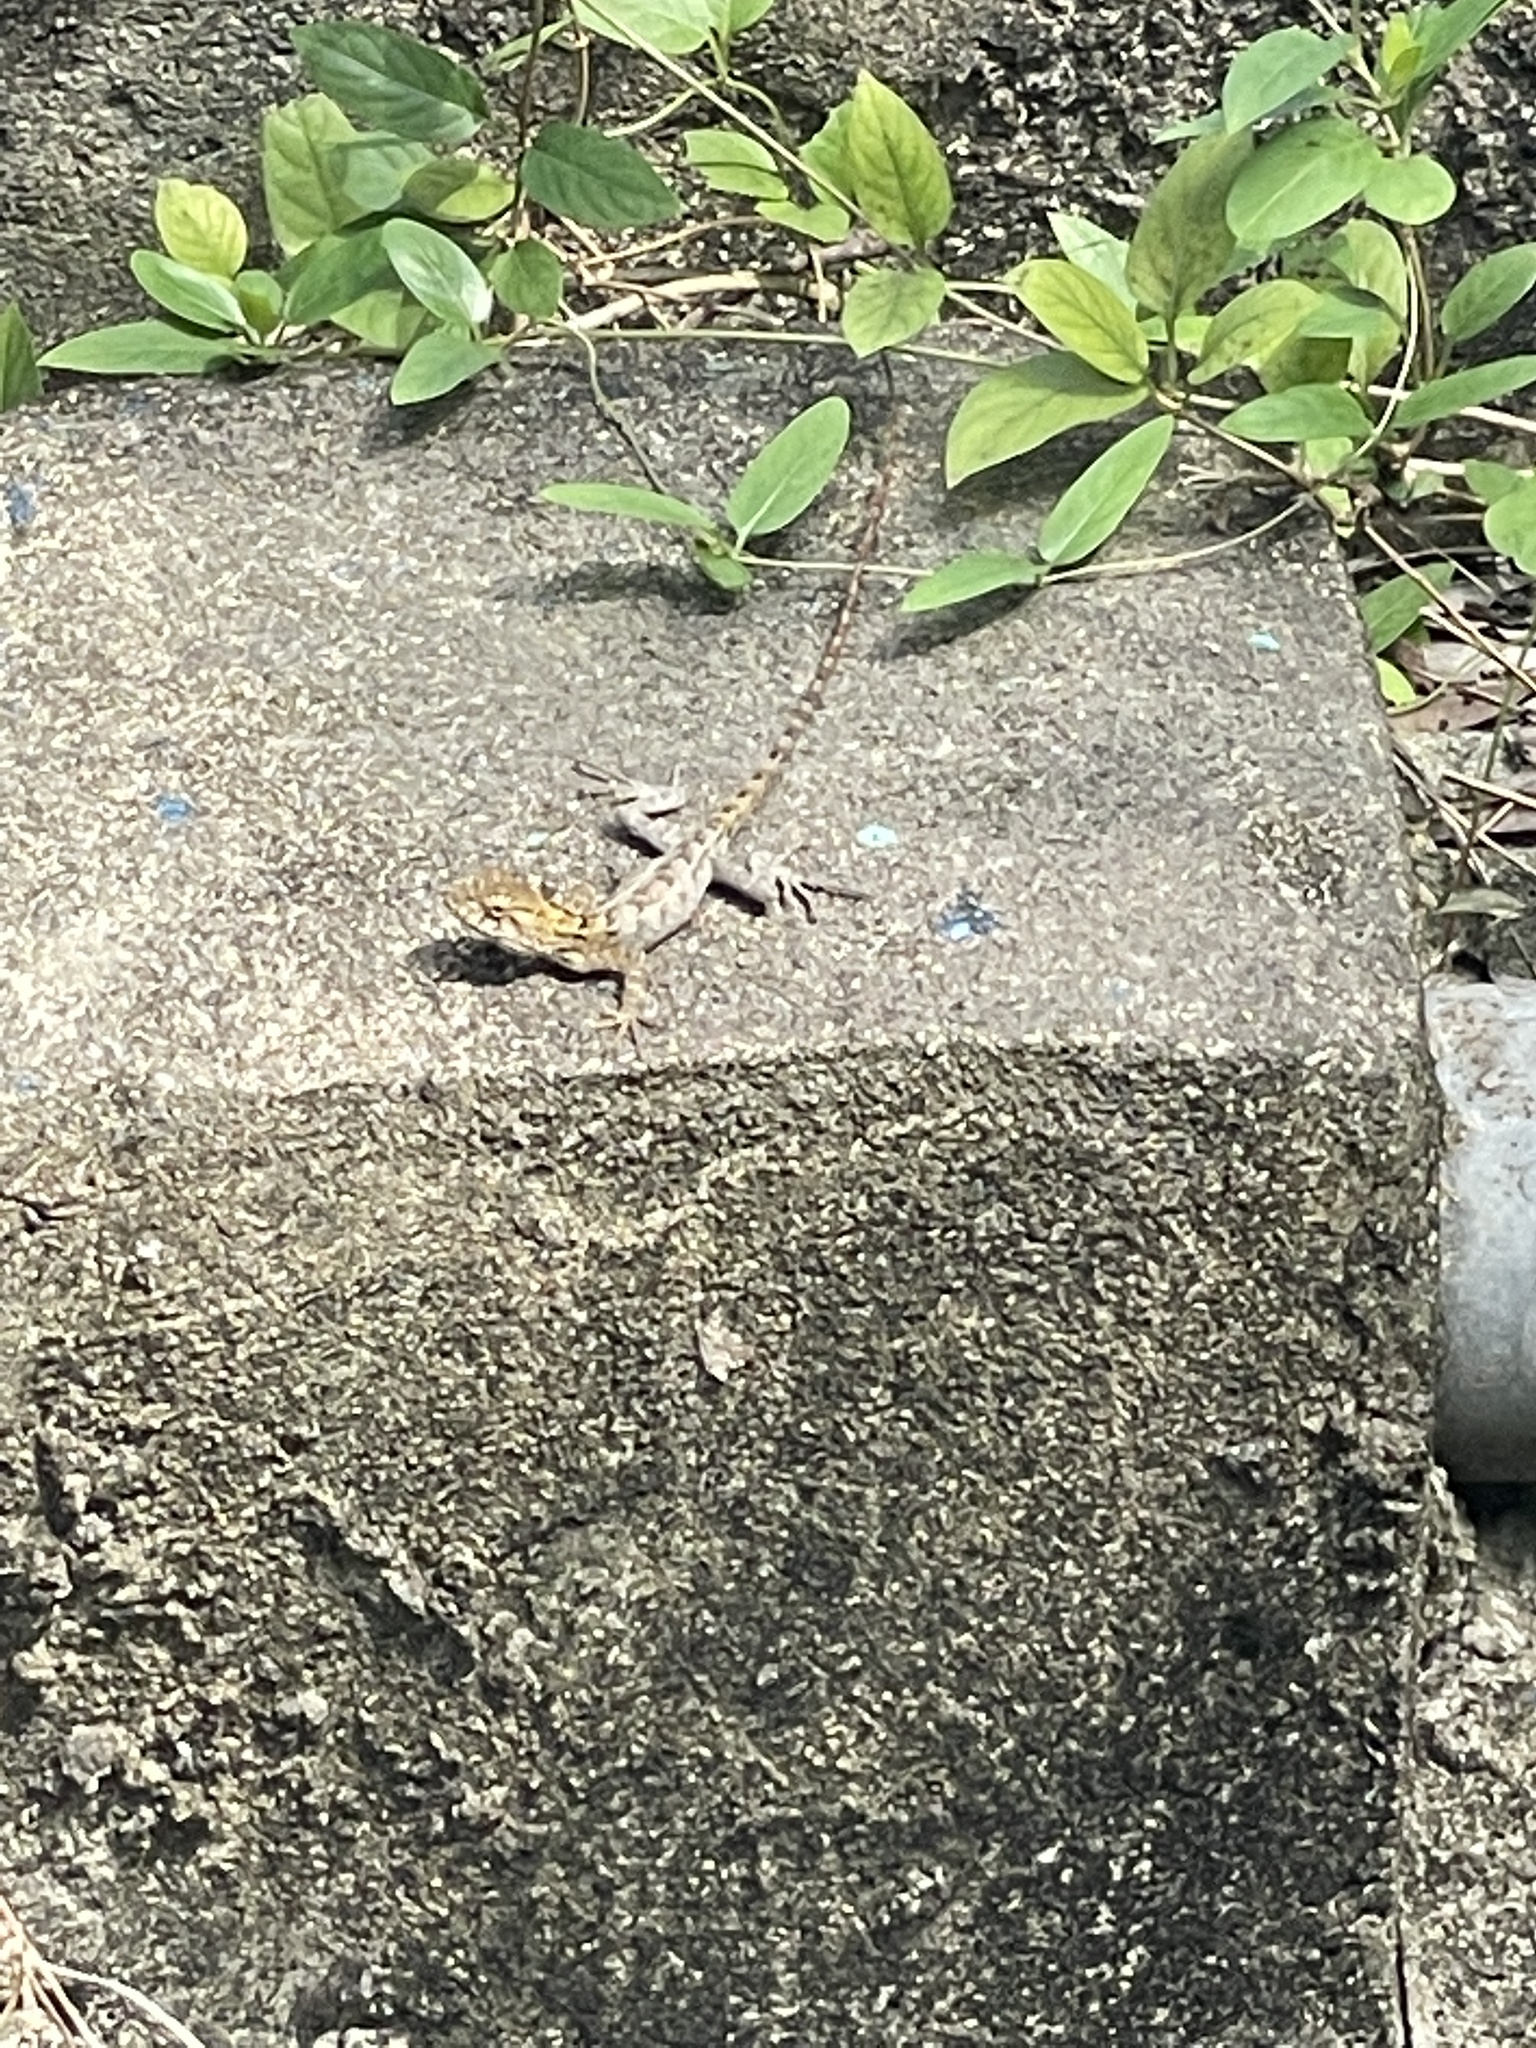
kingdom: Animalia
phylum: Chordata
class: Squamata
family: Agamidae
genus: Calotes
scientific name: Calotes versicolor
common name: Oriental garden lizard
